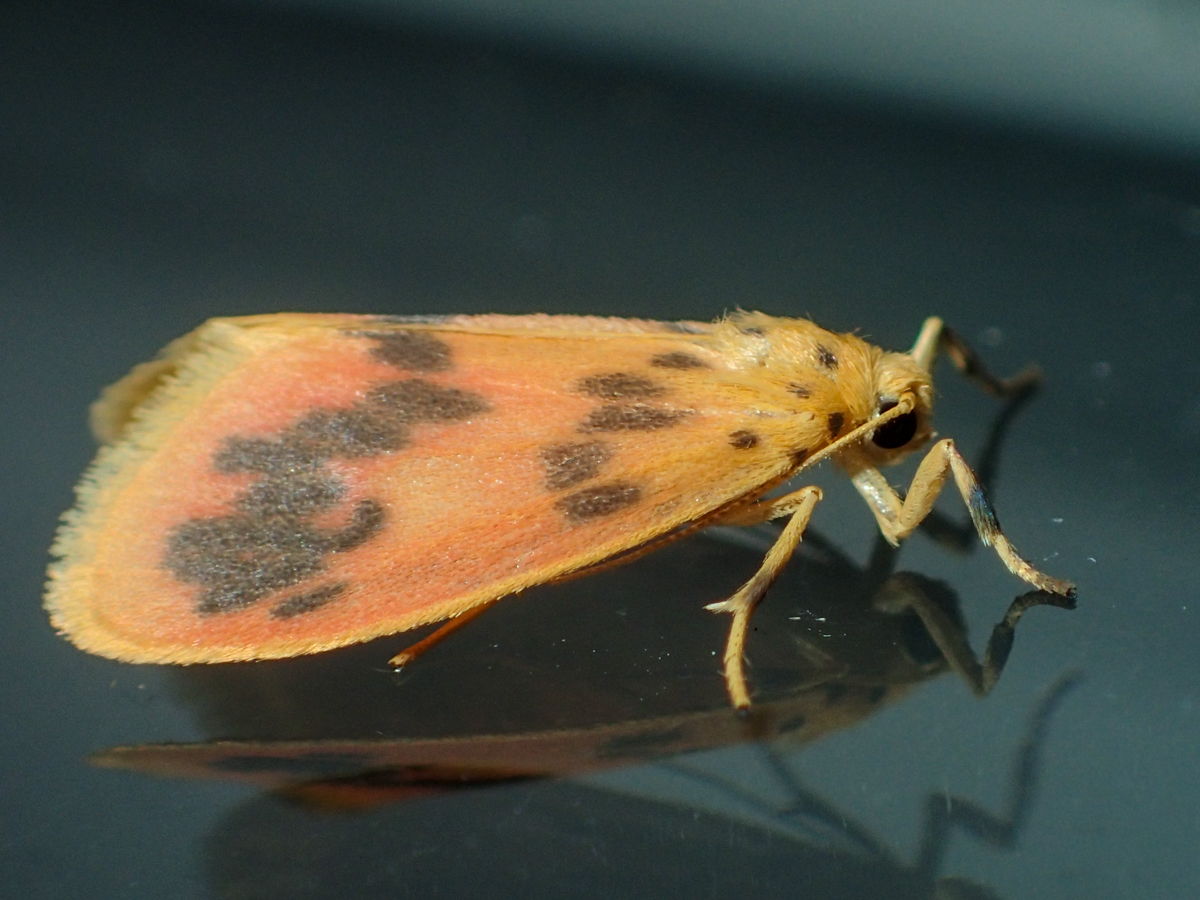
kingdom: Animalia
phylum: Arthropoda
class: Insecta
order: Lepidoptera
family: Erebidae
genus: Miltochrista
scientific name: Miltochrista
